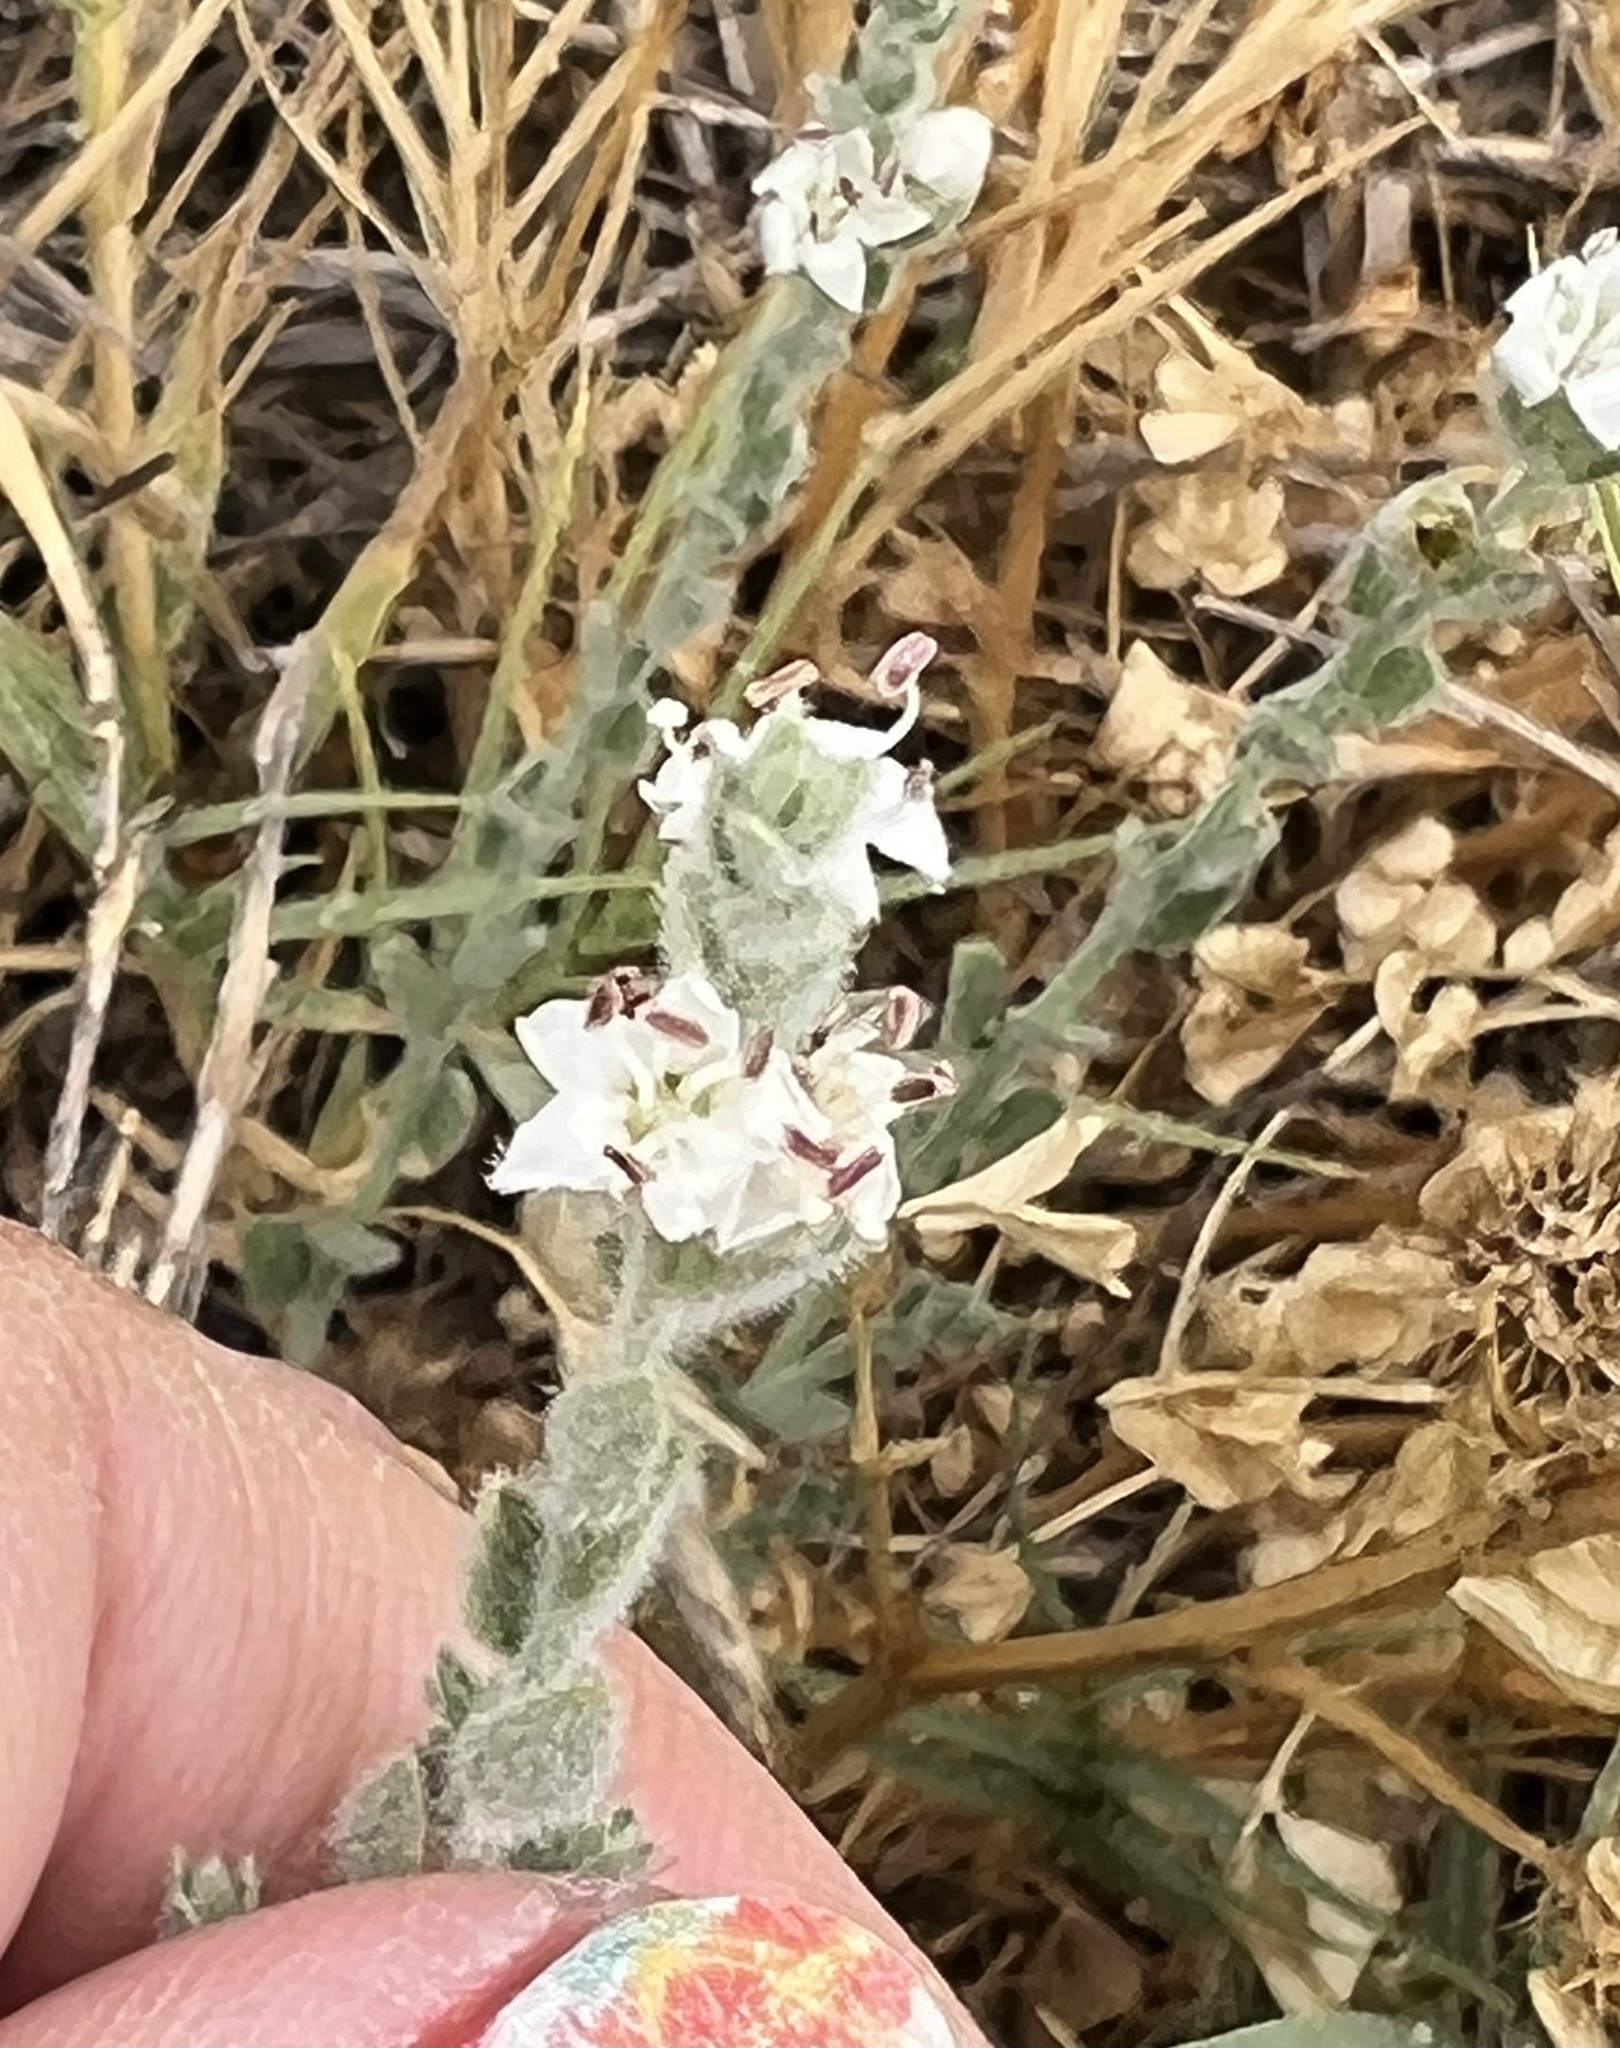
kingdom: Plantae
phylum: Tracheophyta
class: Magnoliopsida
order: Solanales
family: Convolvulaceae
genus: Cressa
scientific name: Cressa truxillensis
